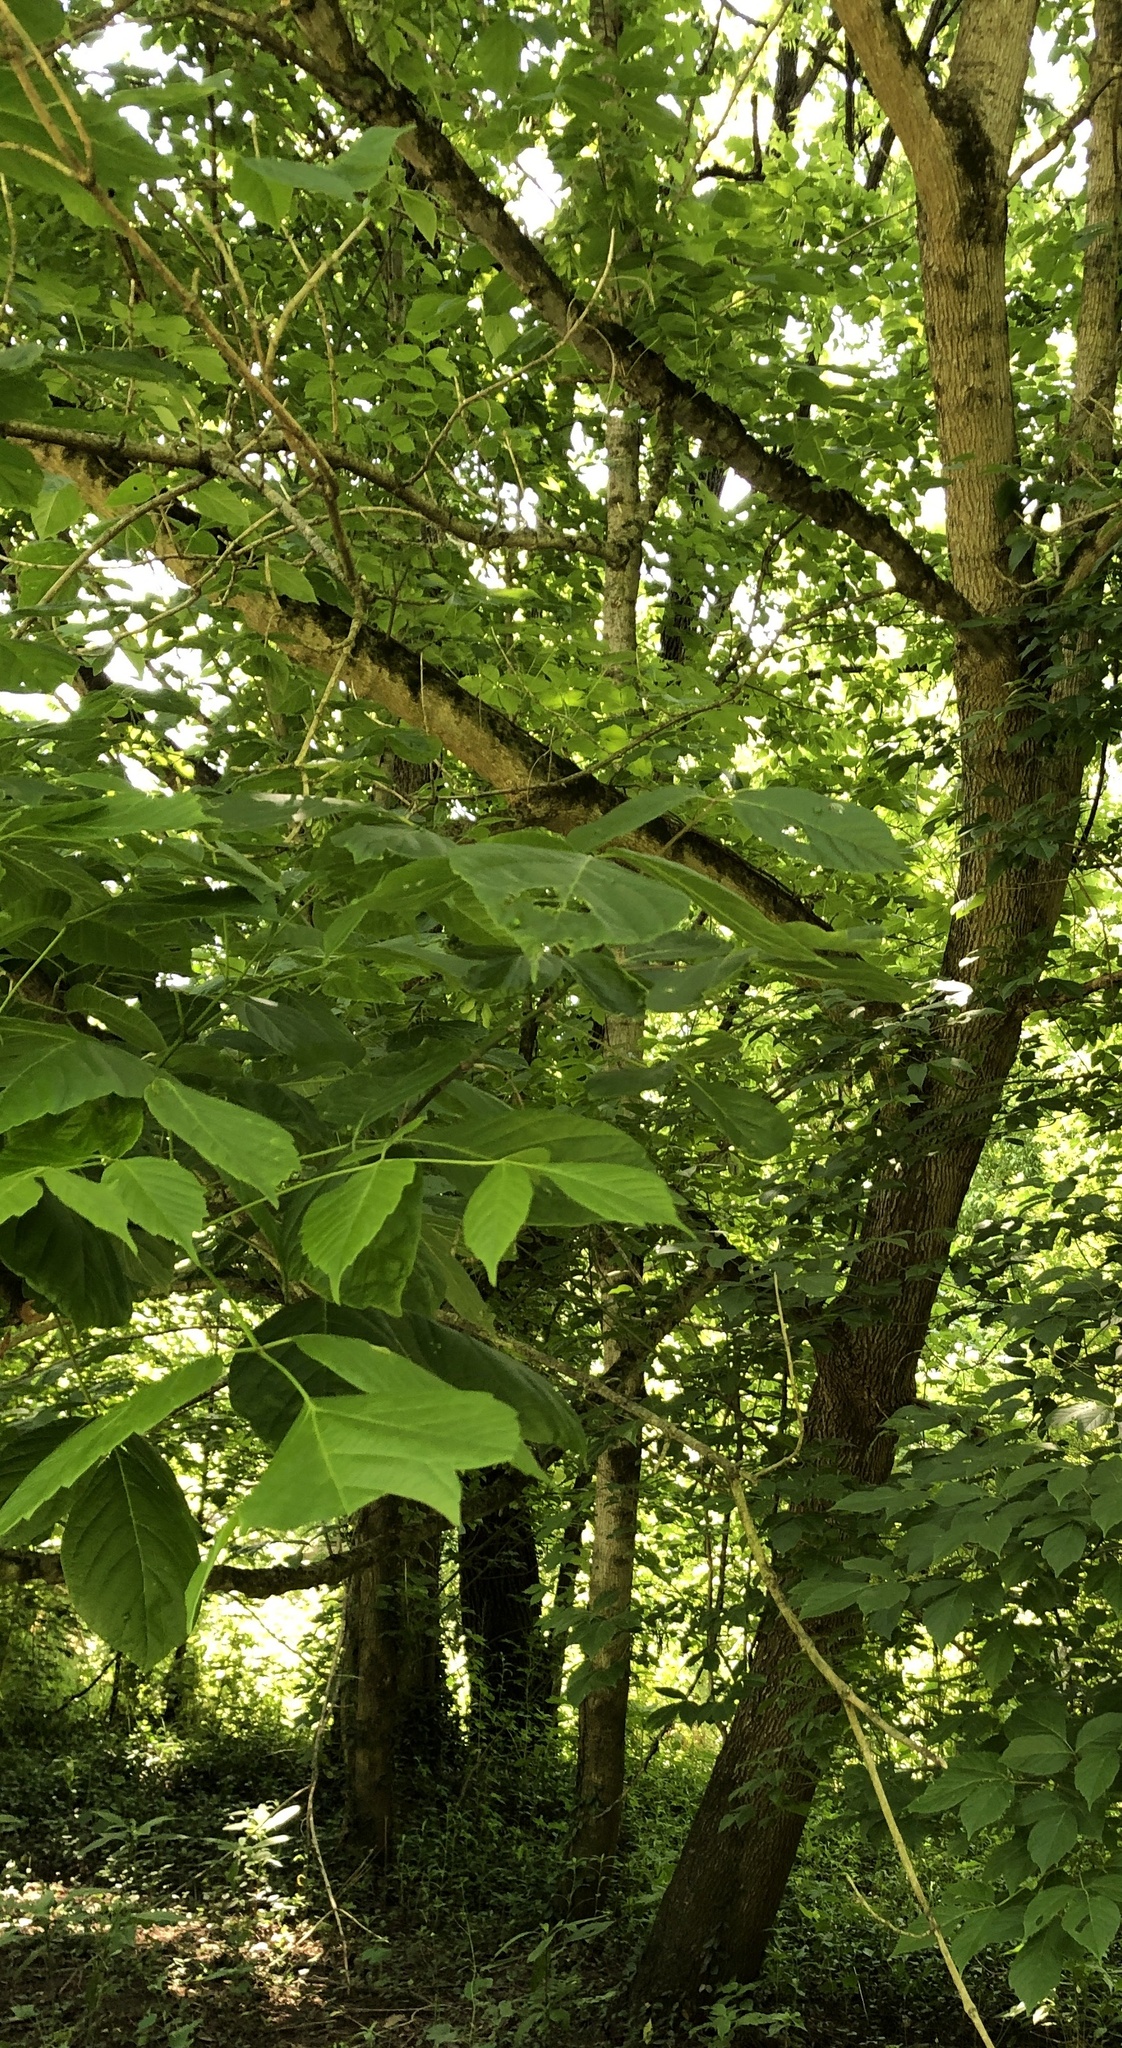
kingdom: Plantae
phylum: Tracheophyta
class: Magnoliopsida
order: Sapindales
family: Sapindaceae
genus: Acer
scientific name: Acer negundo
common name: Ashleaf maple
